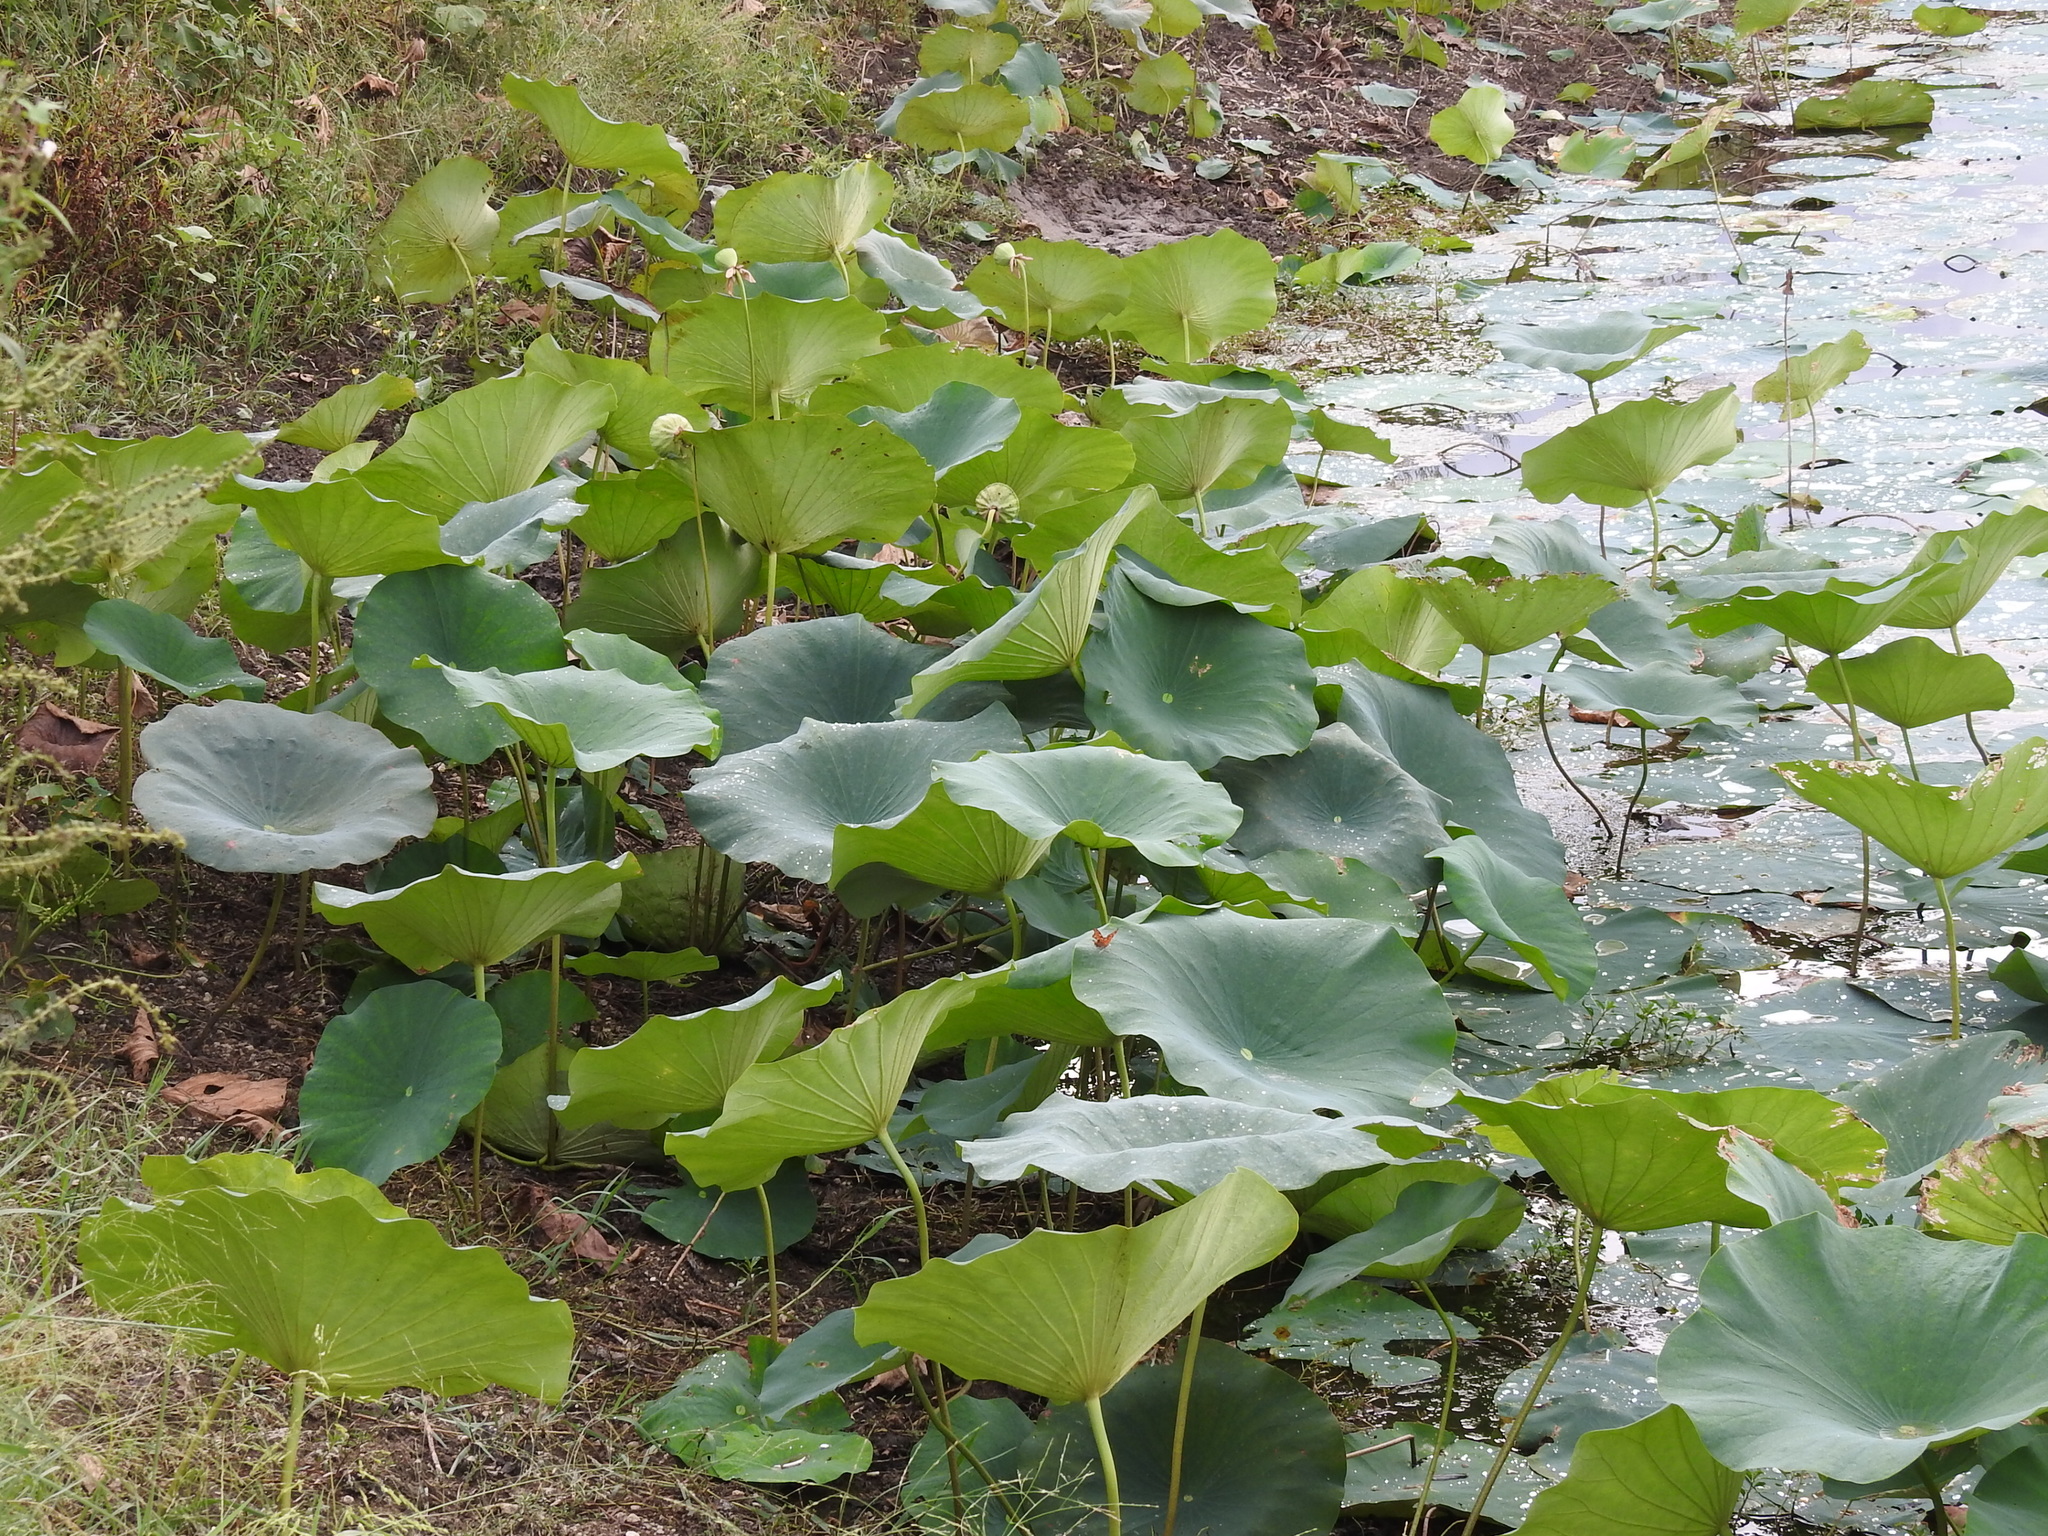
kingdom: Plantae
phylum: Tracheophyta
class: Magnoliopsida
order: Proteales
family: Nelumbonaceae
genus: Nelumbo
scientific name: Nelumbo lutea
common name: American lotus
